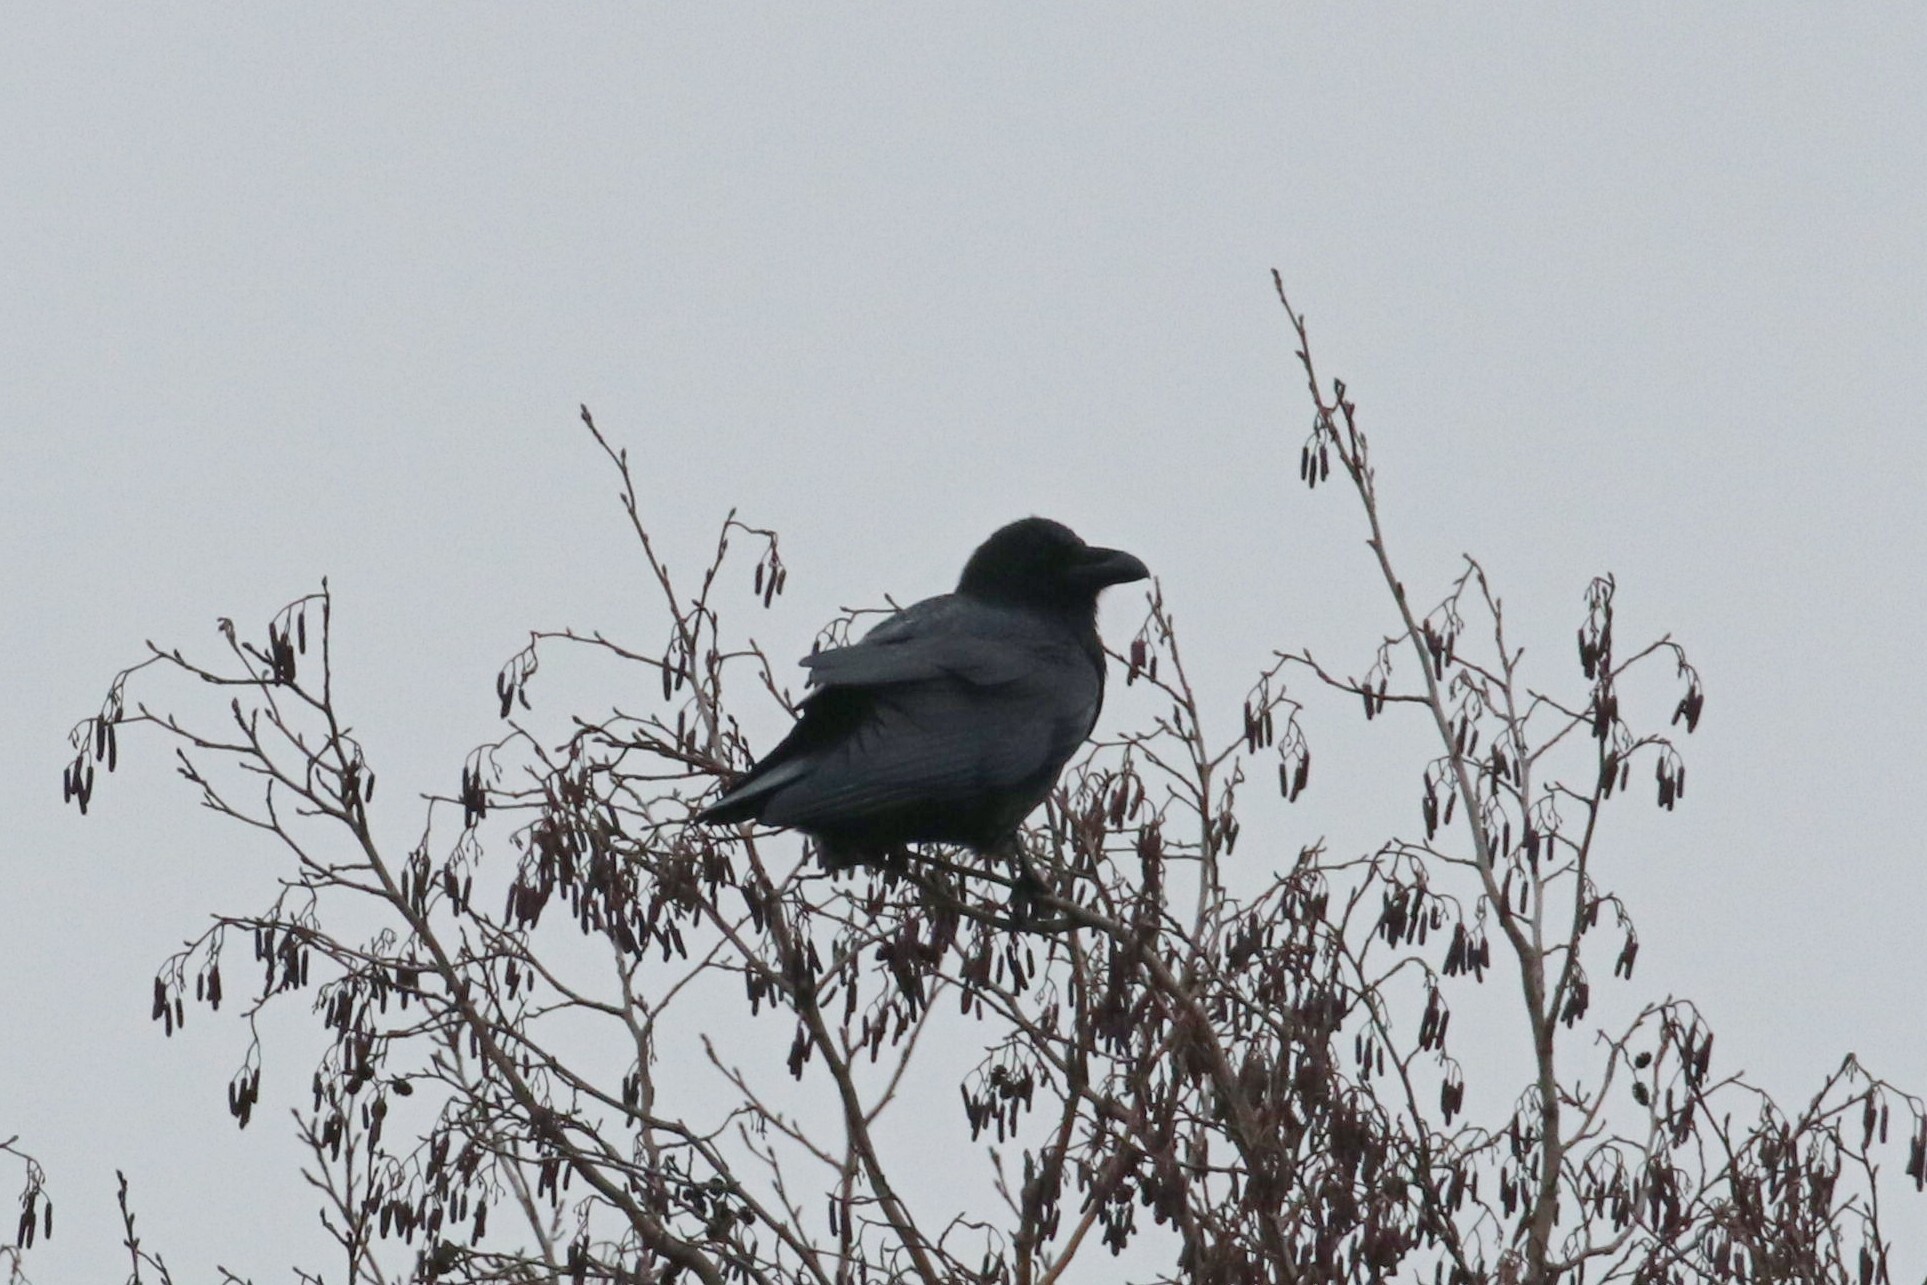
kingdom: Animalia
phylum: Chordata
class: Aves
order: Passeriformes
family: Corvidae
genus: Corvus
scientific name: Corvus corax
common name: Common raven
